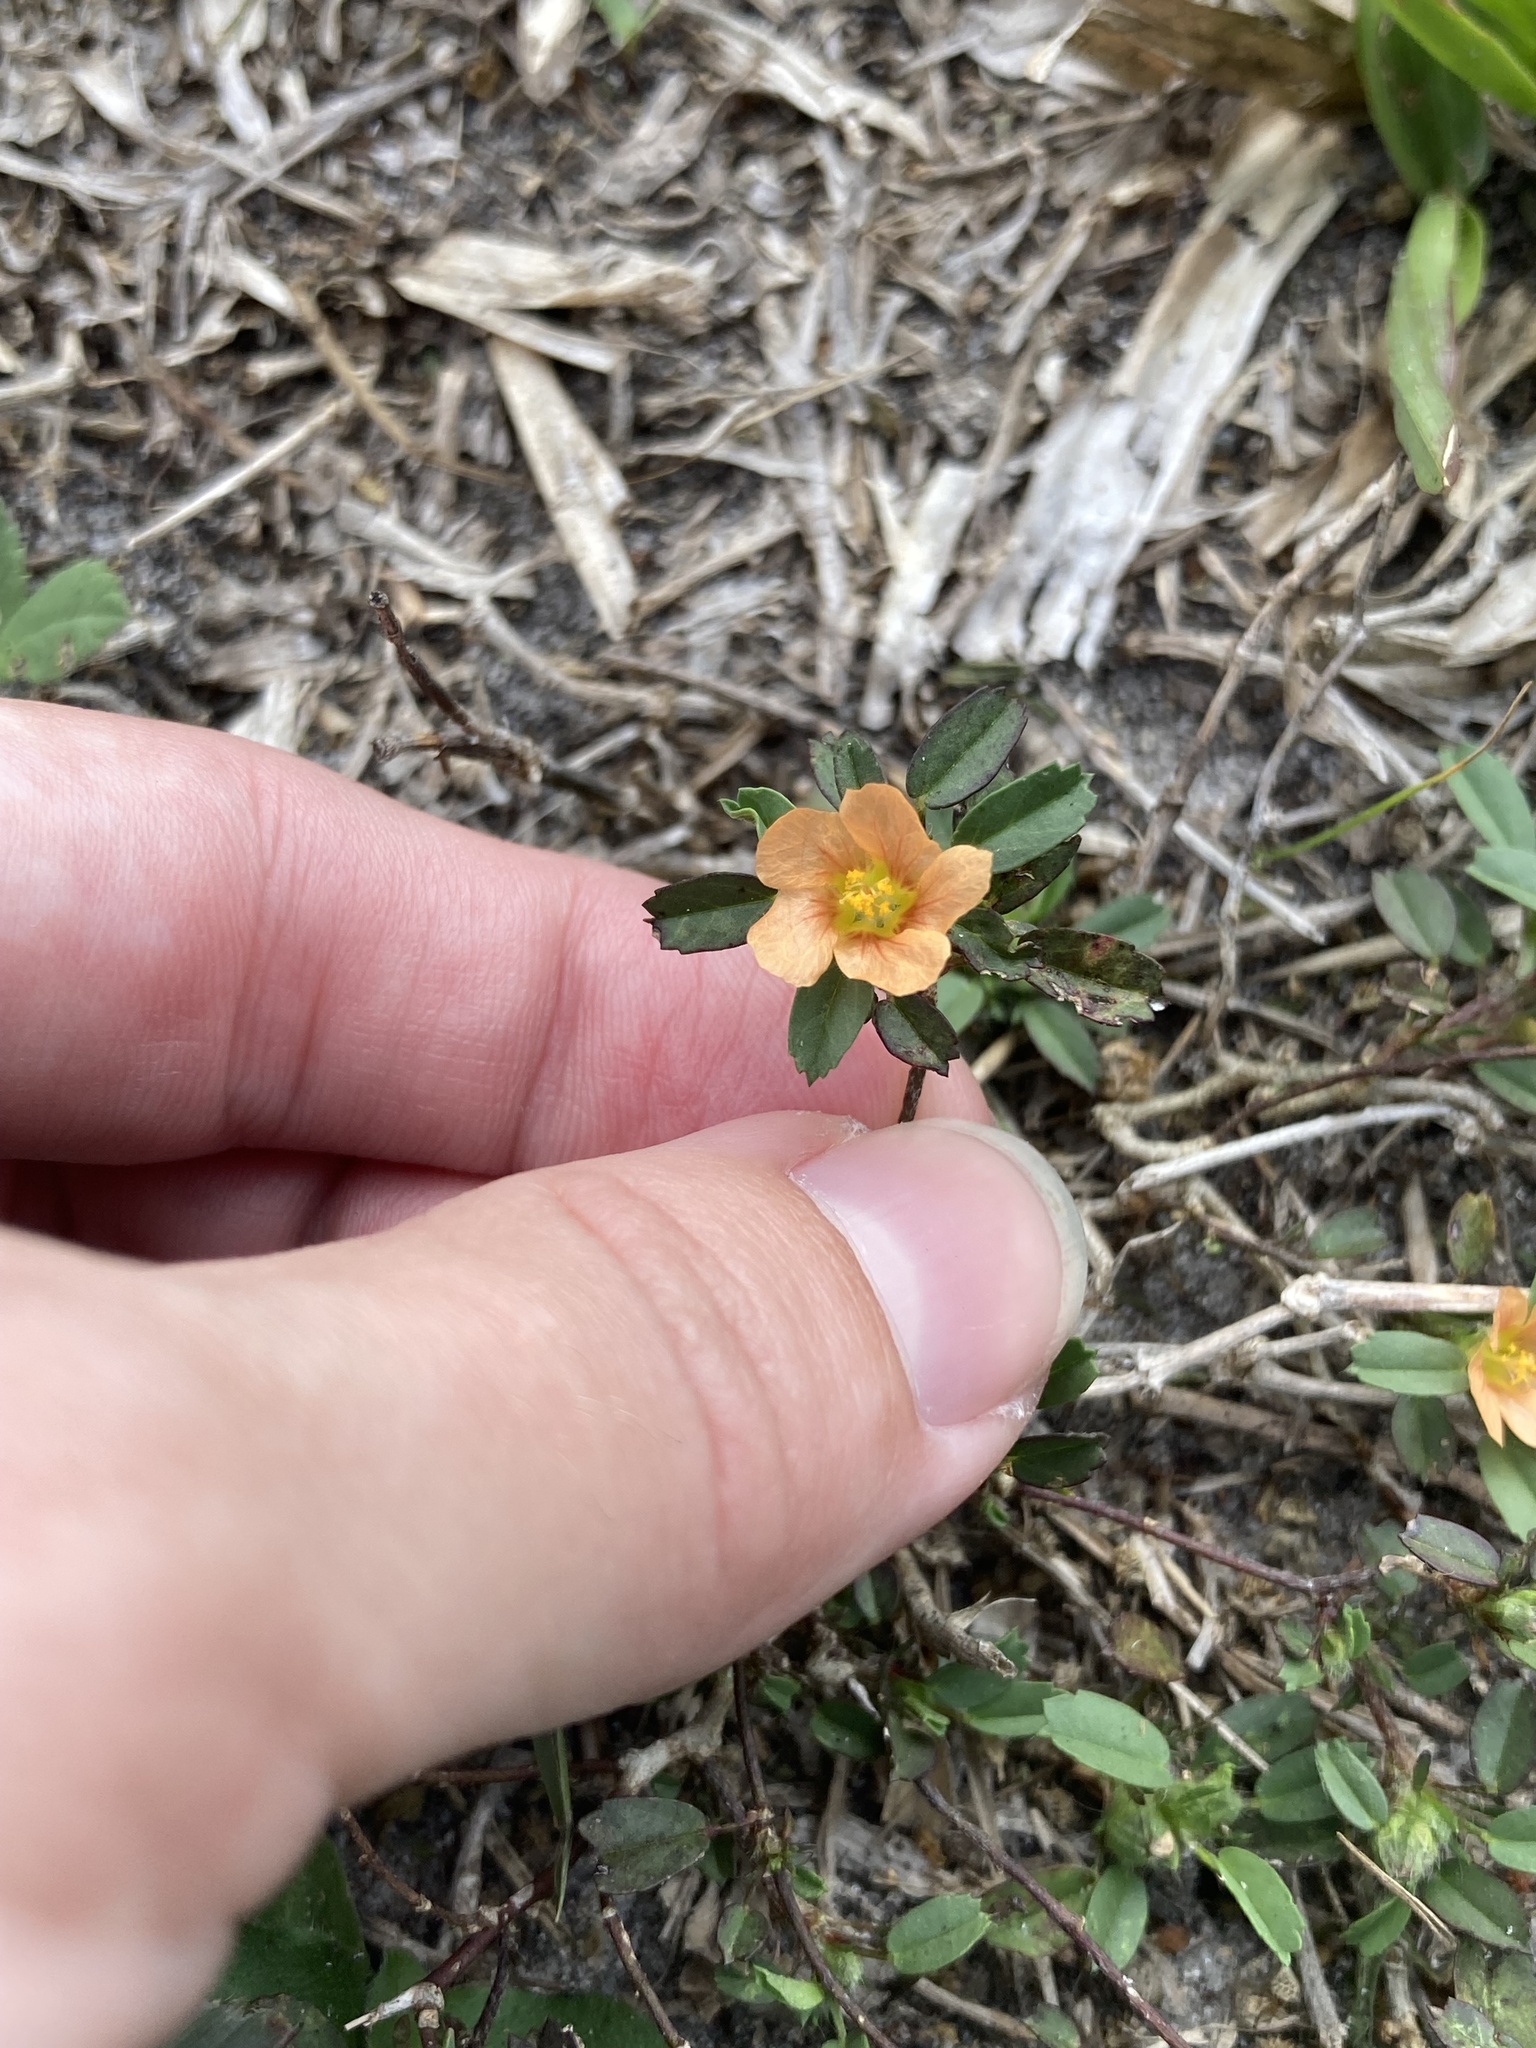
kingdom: Plantae
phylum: Tracheophyta
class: Magnoliopsida
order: Malvales
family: Malvaceae
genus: Sida
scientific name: Sida ciliaris
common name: Bracted fanpetals
